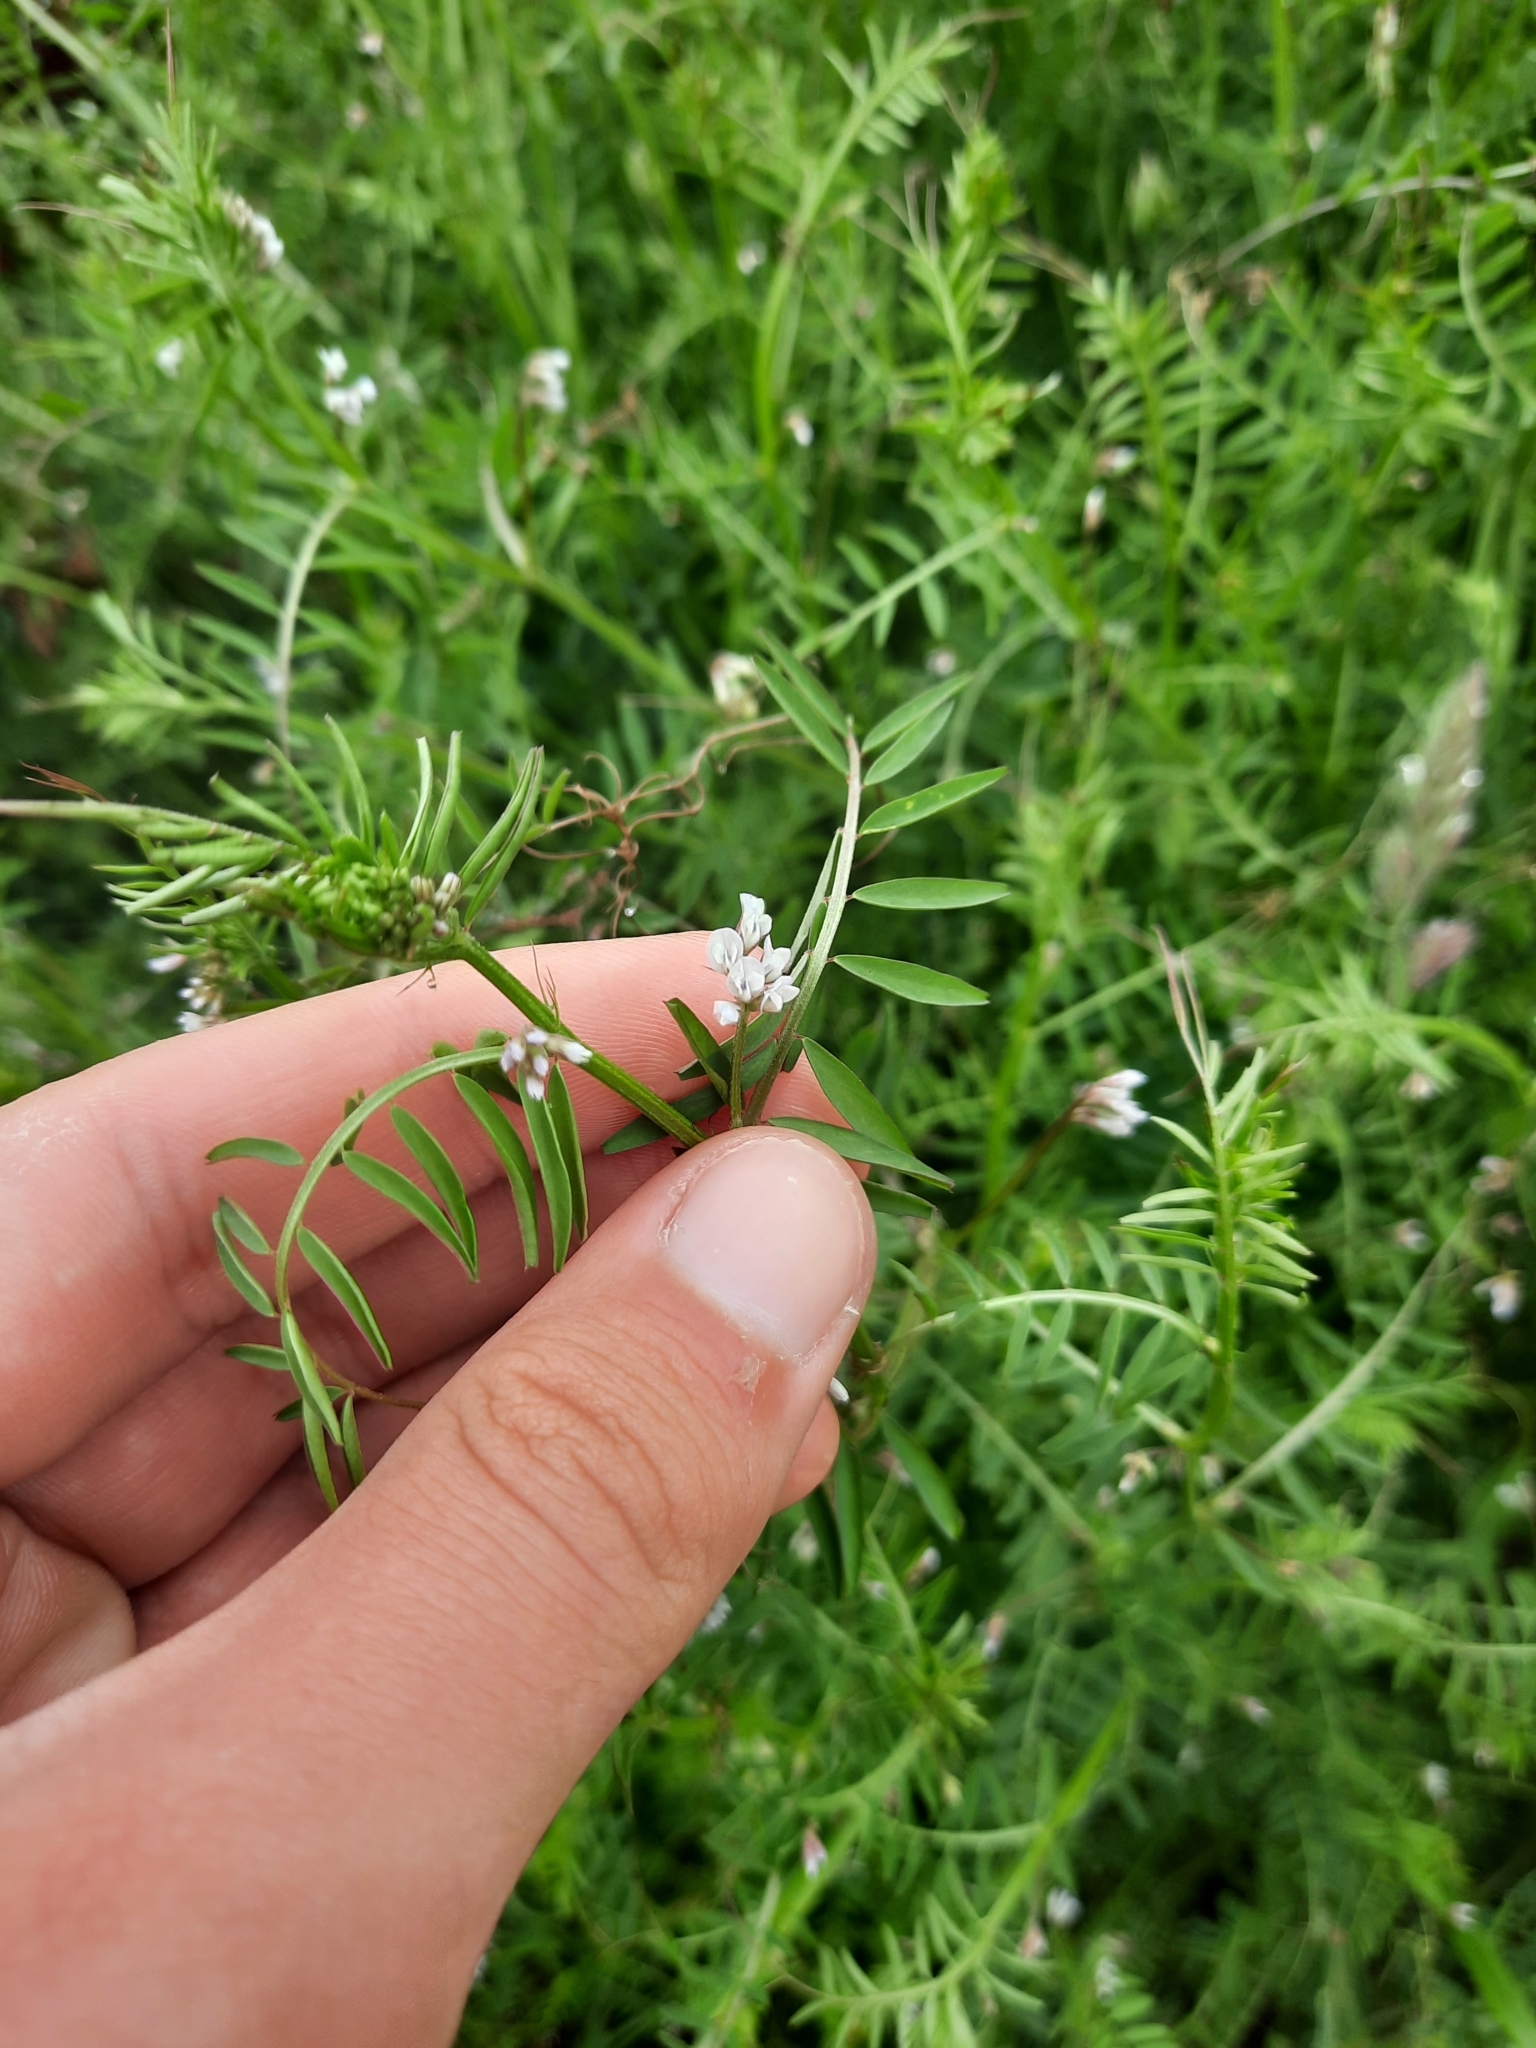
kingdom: Plantae
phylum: Tracheophyta
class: Magnoliopsida
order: Fabales
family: Fabaceae
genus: Vicia
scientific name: Vicia hirsuta
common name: Tiny vetch
